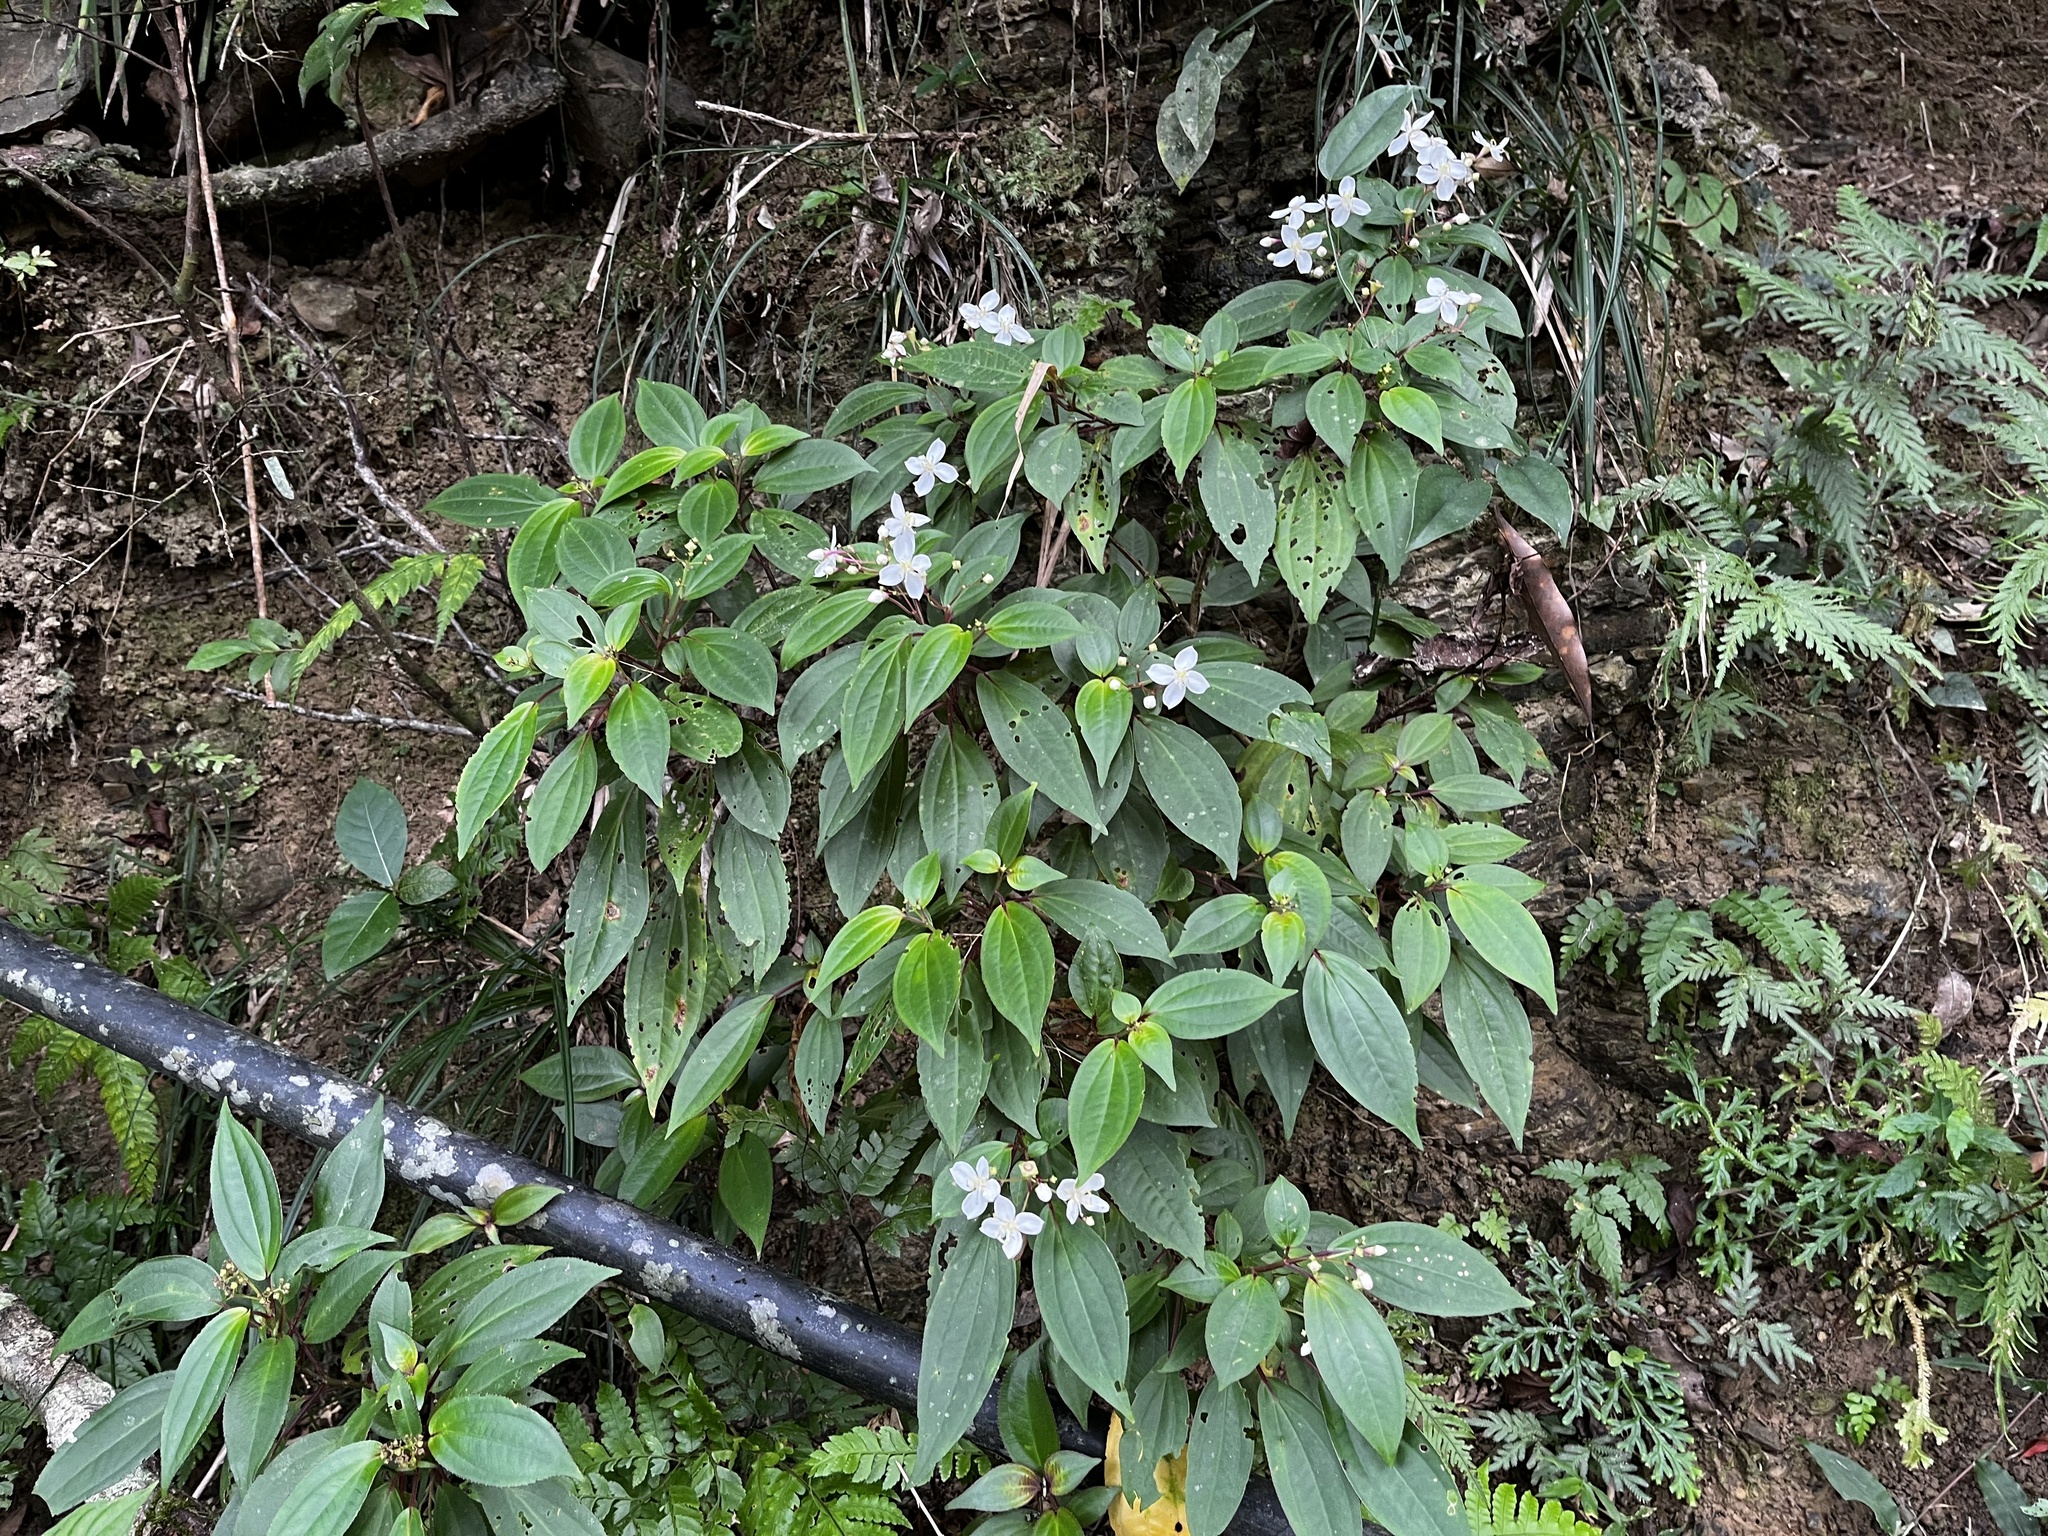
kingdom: Plantae
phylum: Tracheophyta
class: Magnoliopsida
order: Myrtales
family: Melastomataceae
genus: Bredia
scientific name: Bredia oldhamii
